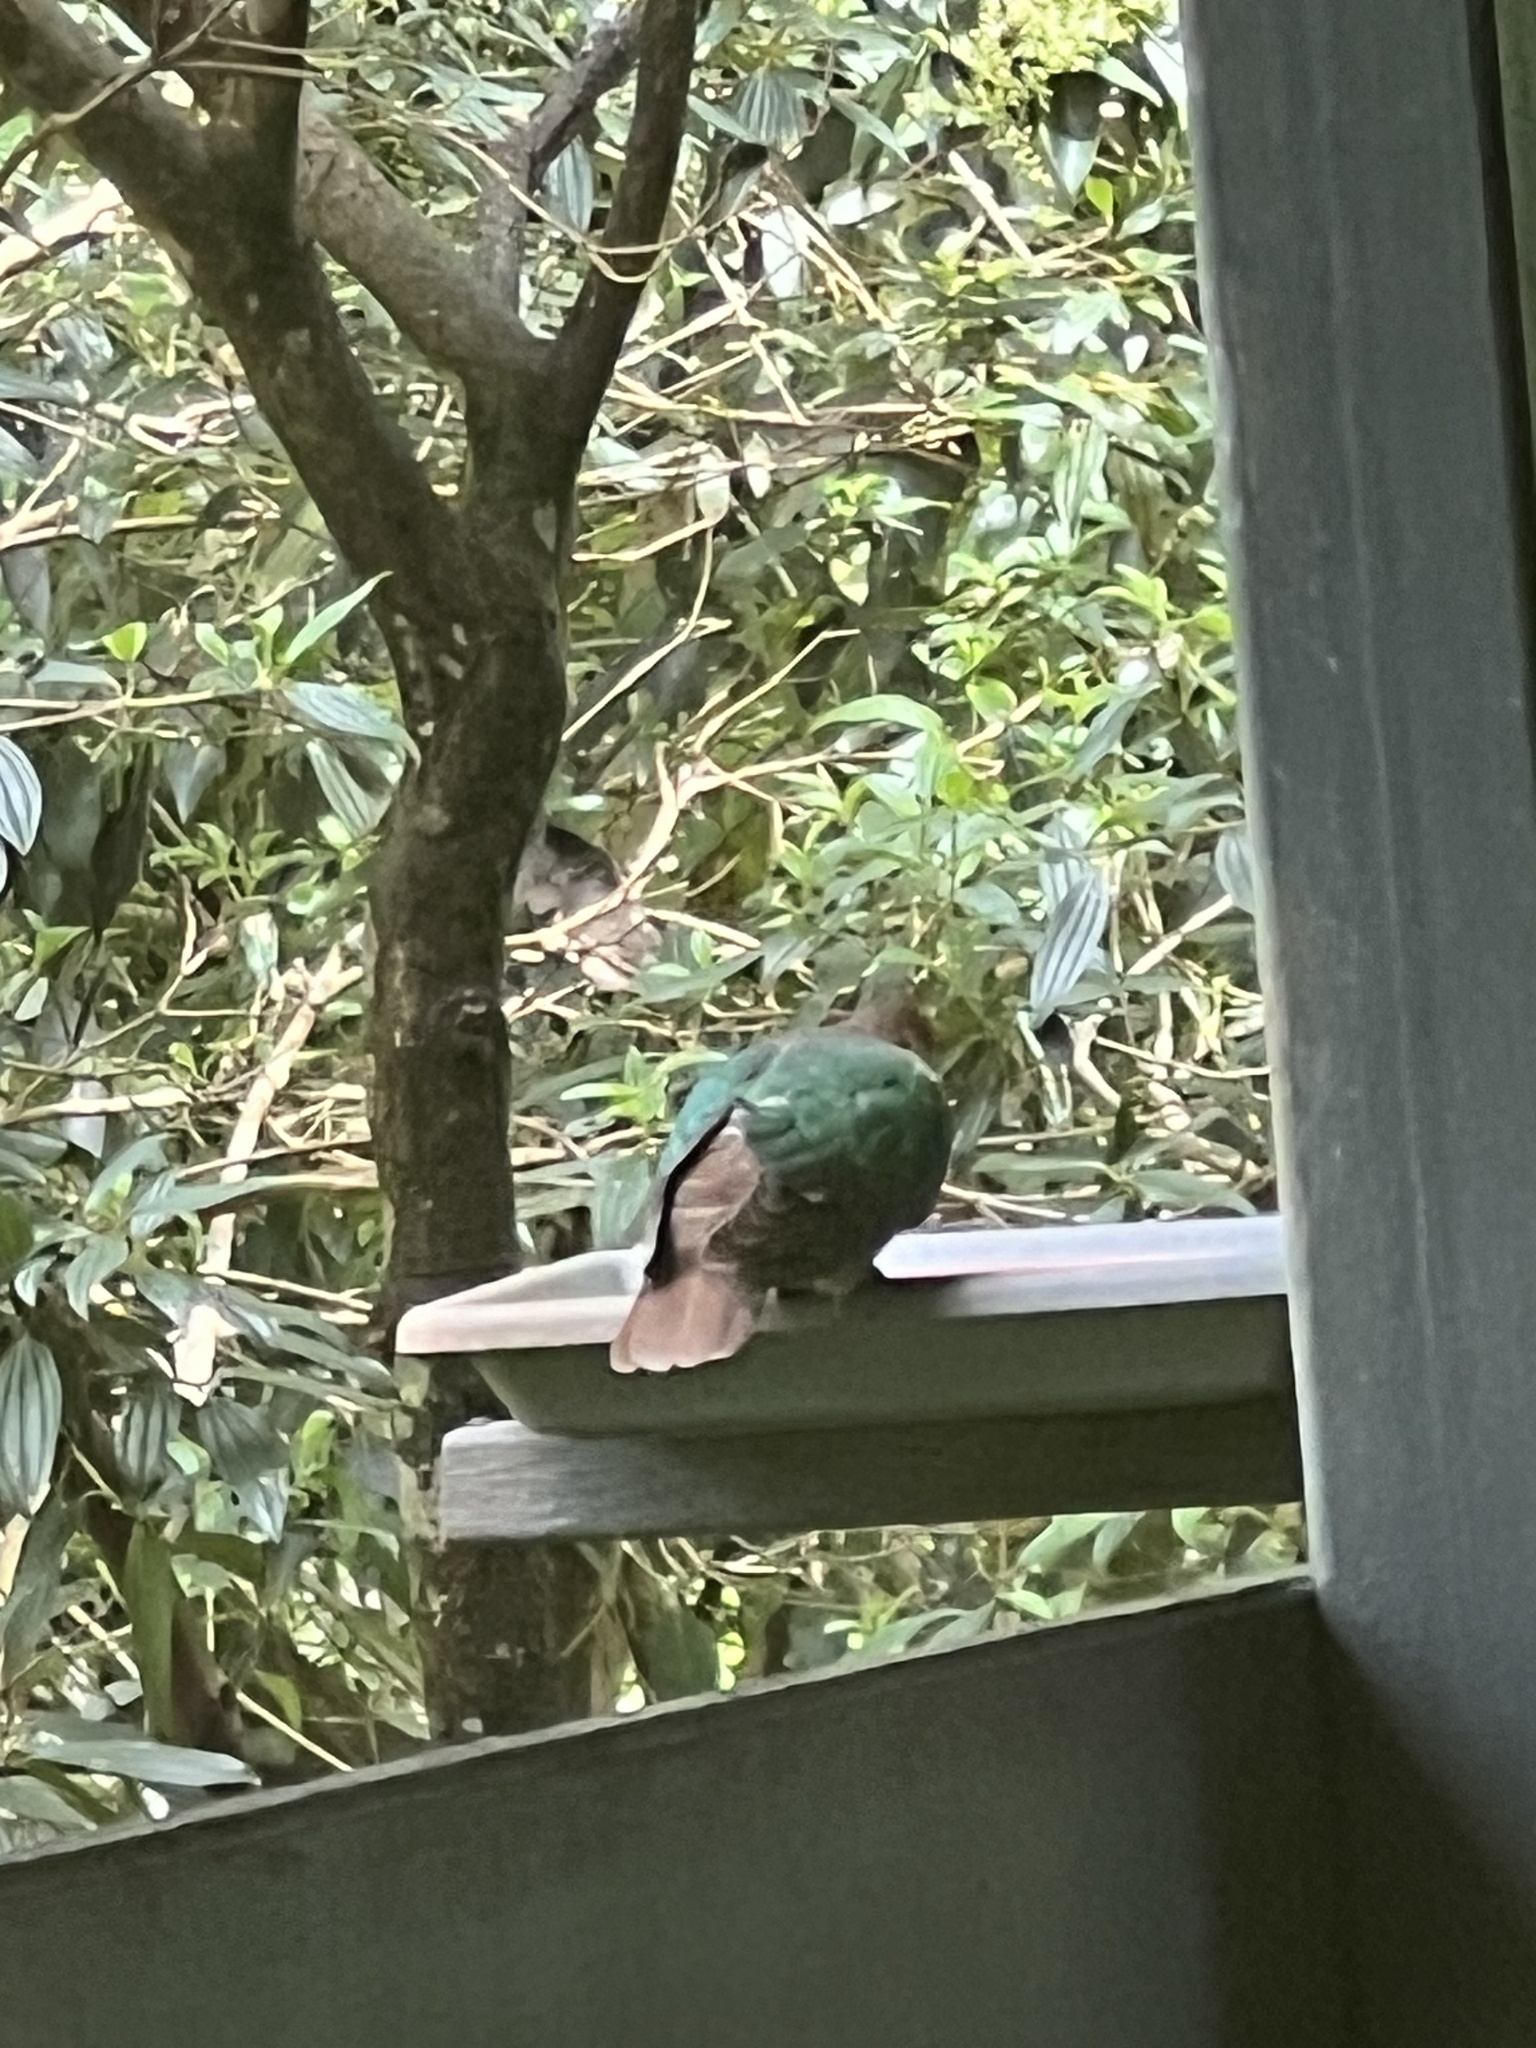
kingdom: Animalia
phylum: Chordata
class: Aves
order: Columbiformes
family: Columbidae
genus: Chalcophaps
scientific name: Chalcophaps longirostris
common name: Pacific emerald dove
